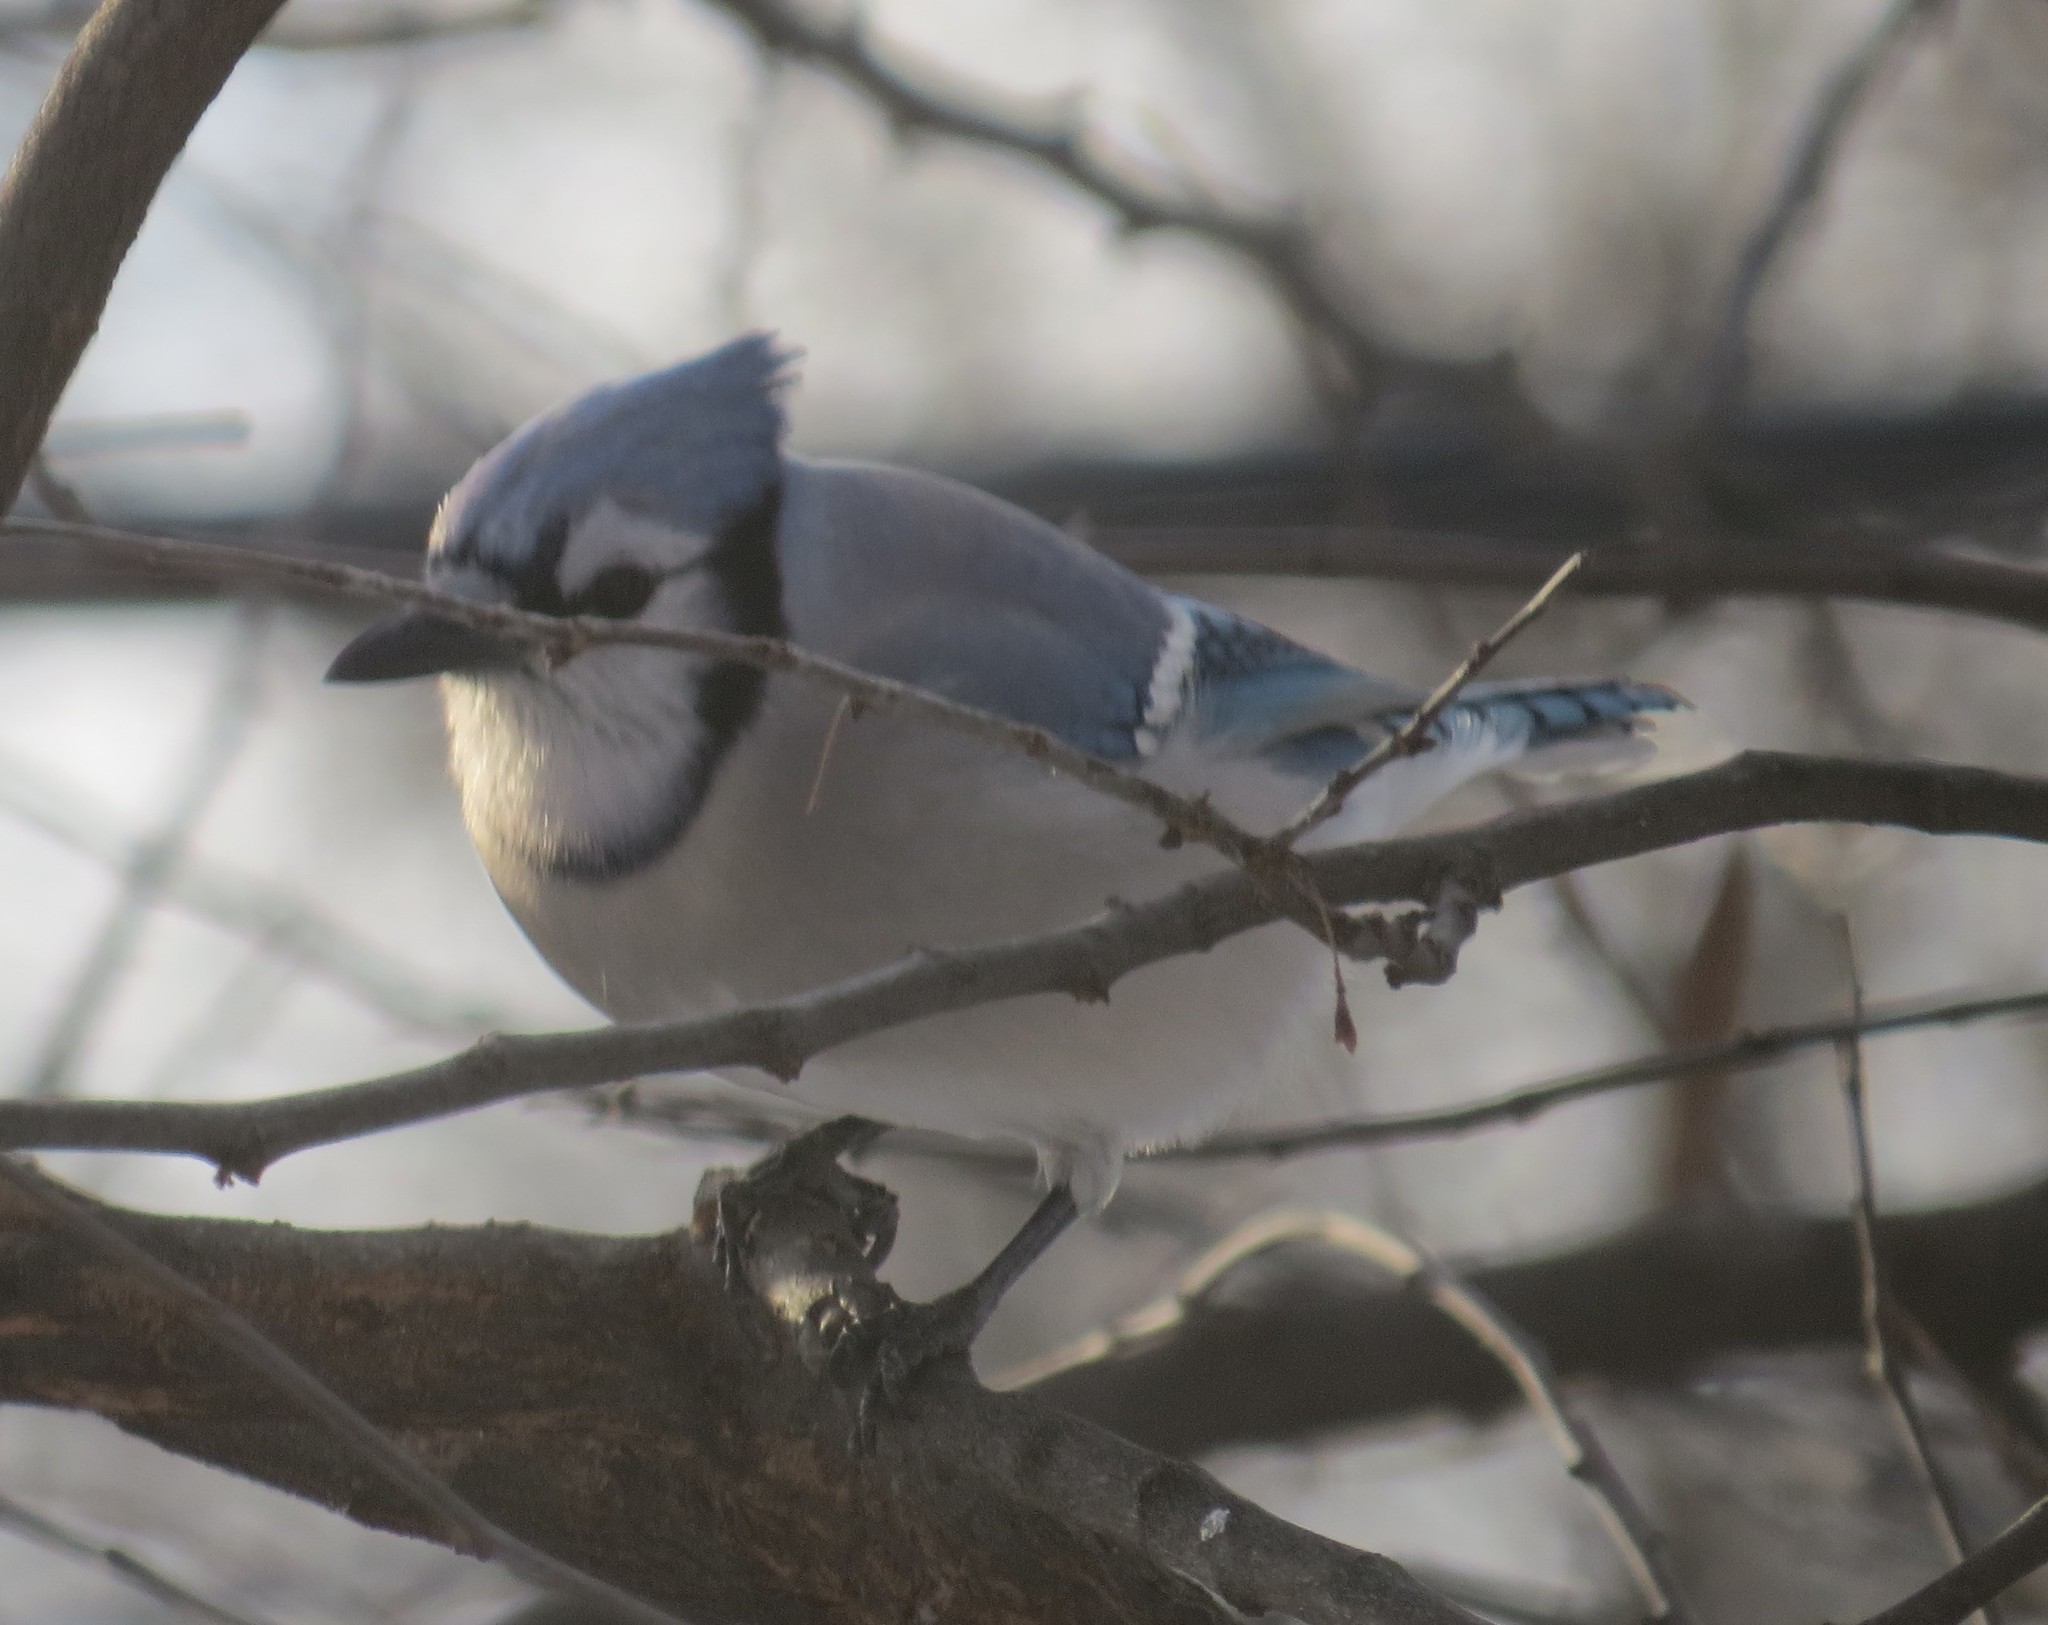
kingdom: Animalia
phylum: Chordata
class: Aves
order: Passeriformes
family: Corvidae
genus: Cyanocitta
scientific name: Cyanocitta cristata
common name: Blue jay
